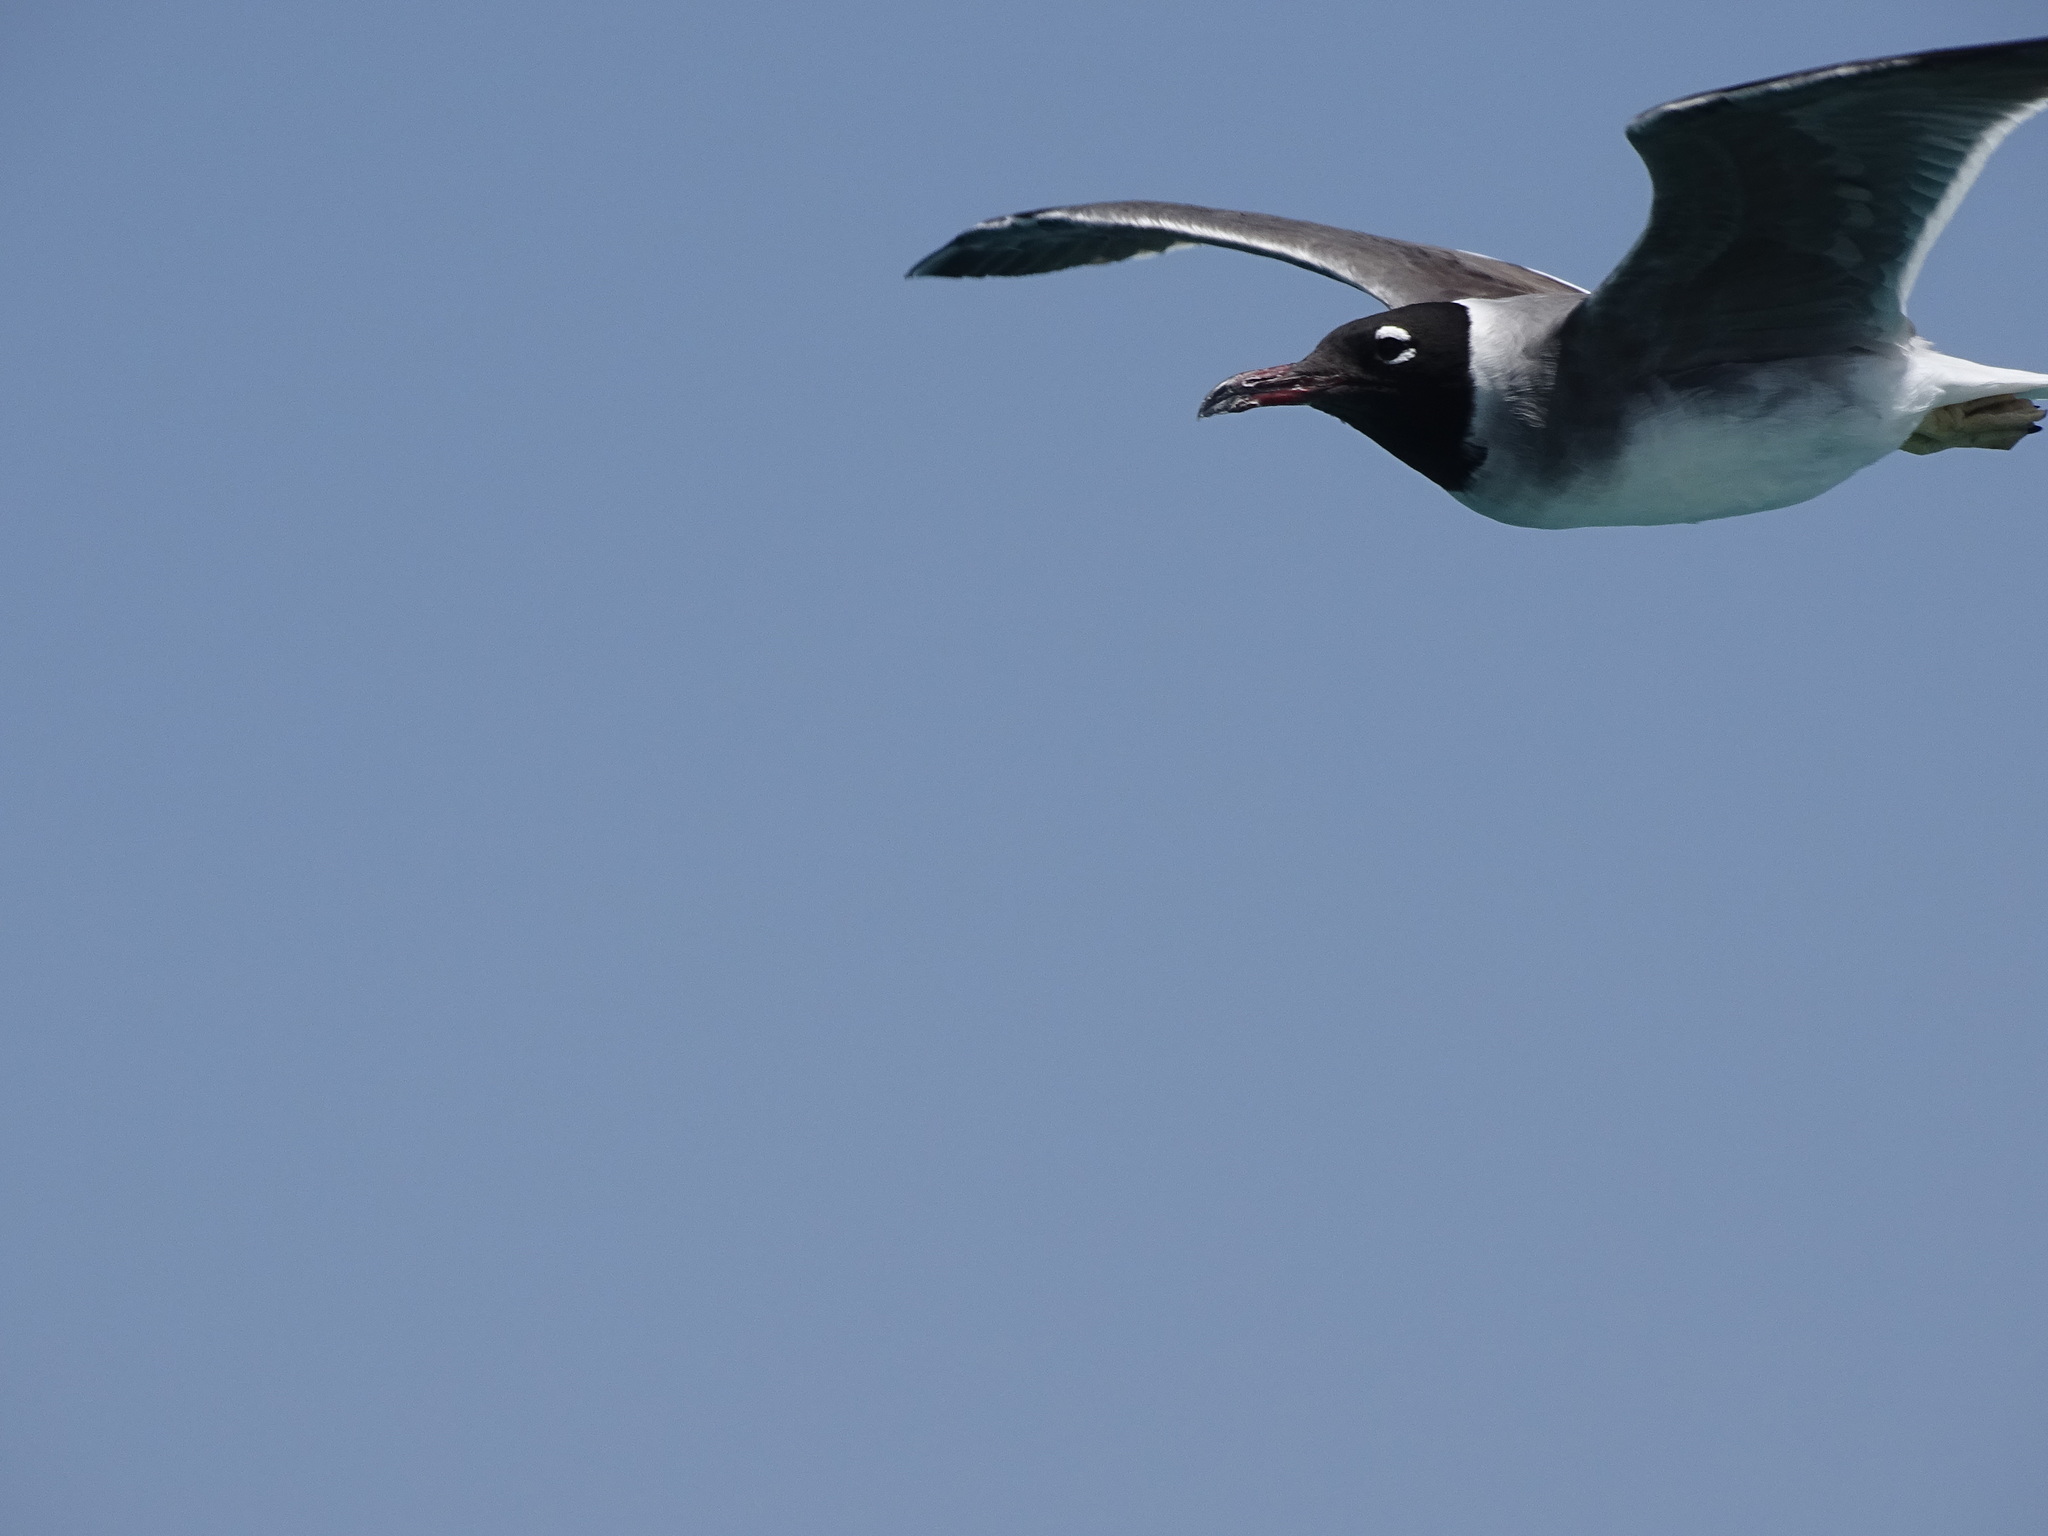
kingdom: Animalia
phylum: Chordata
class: Aves
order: Charadriiformes
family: Laridae
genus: Ichthyaetus
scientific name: Ichthyaetus leucophthalmus
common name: White-eyed gull
